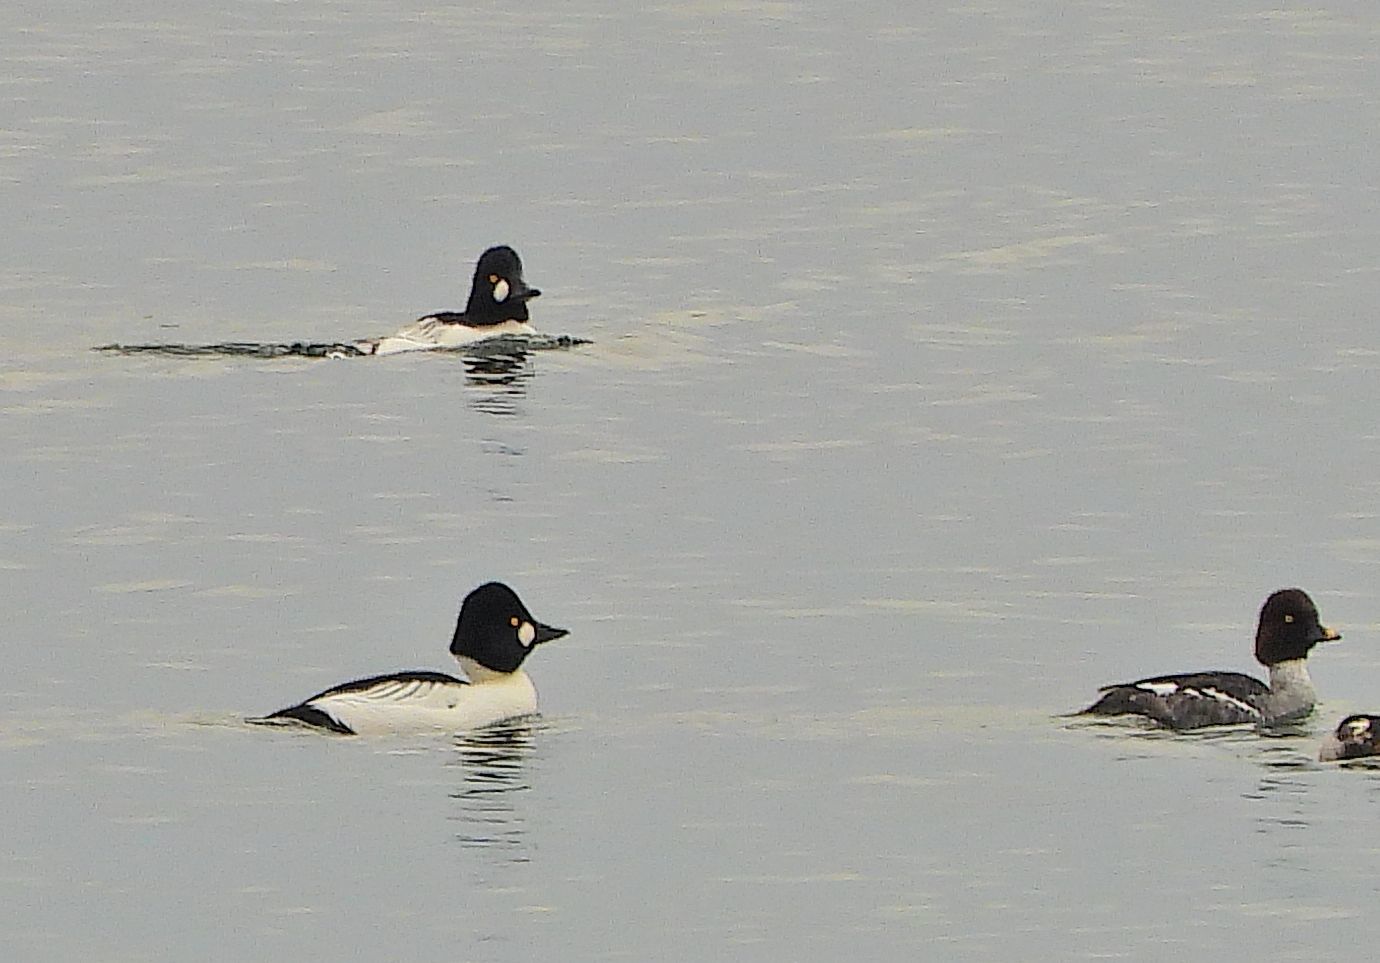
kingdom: Animalia
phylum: Chordata
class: Aves
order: Anseriformes
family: Anatidae
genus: Bucephala
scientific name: Bucephala clangula
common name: Common goldeneye
